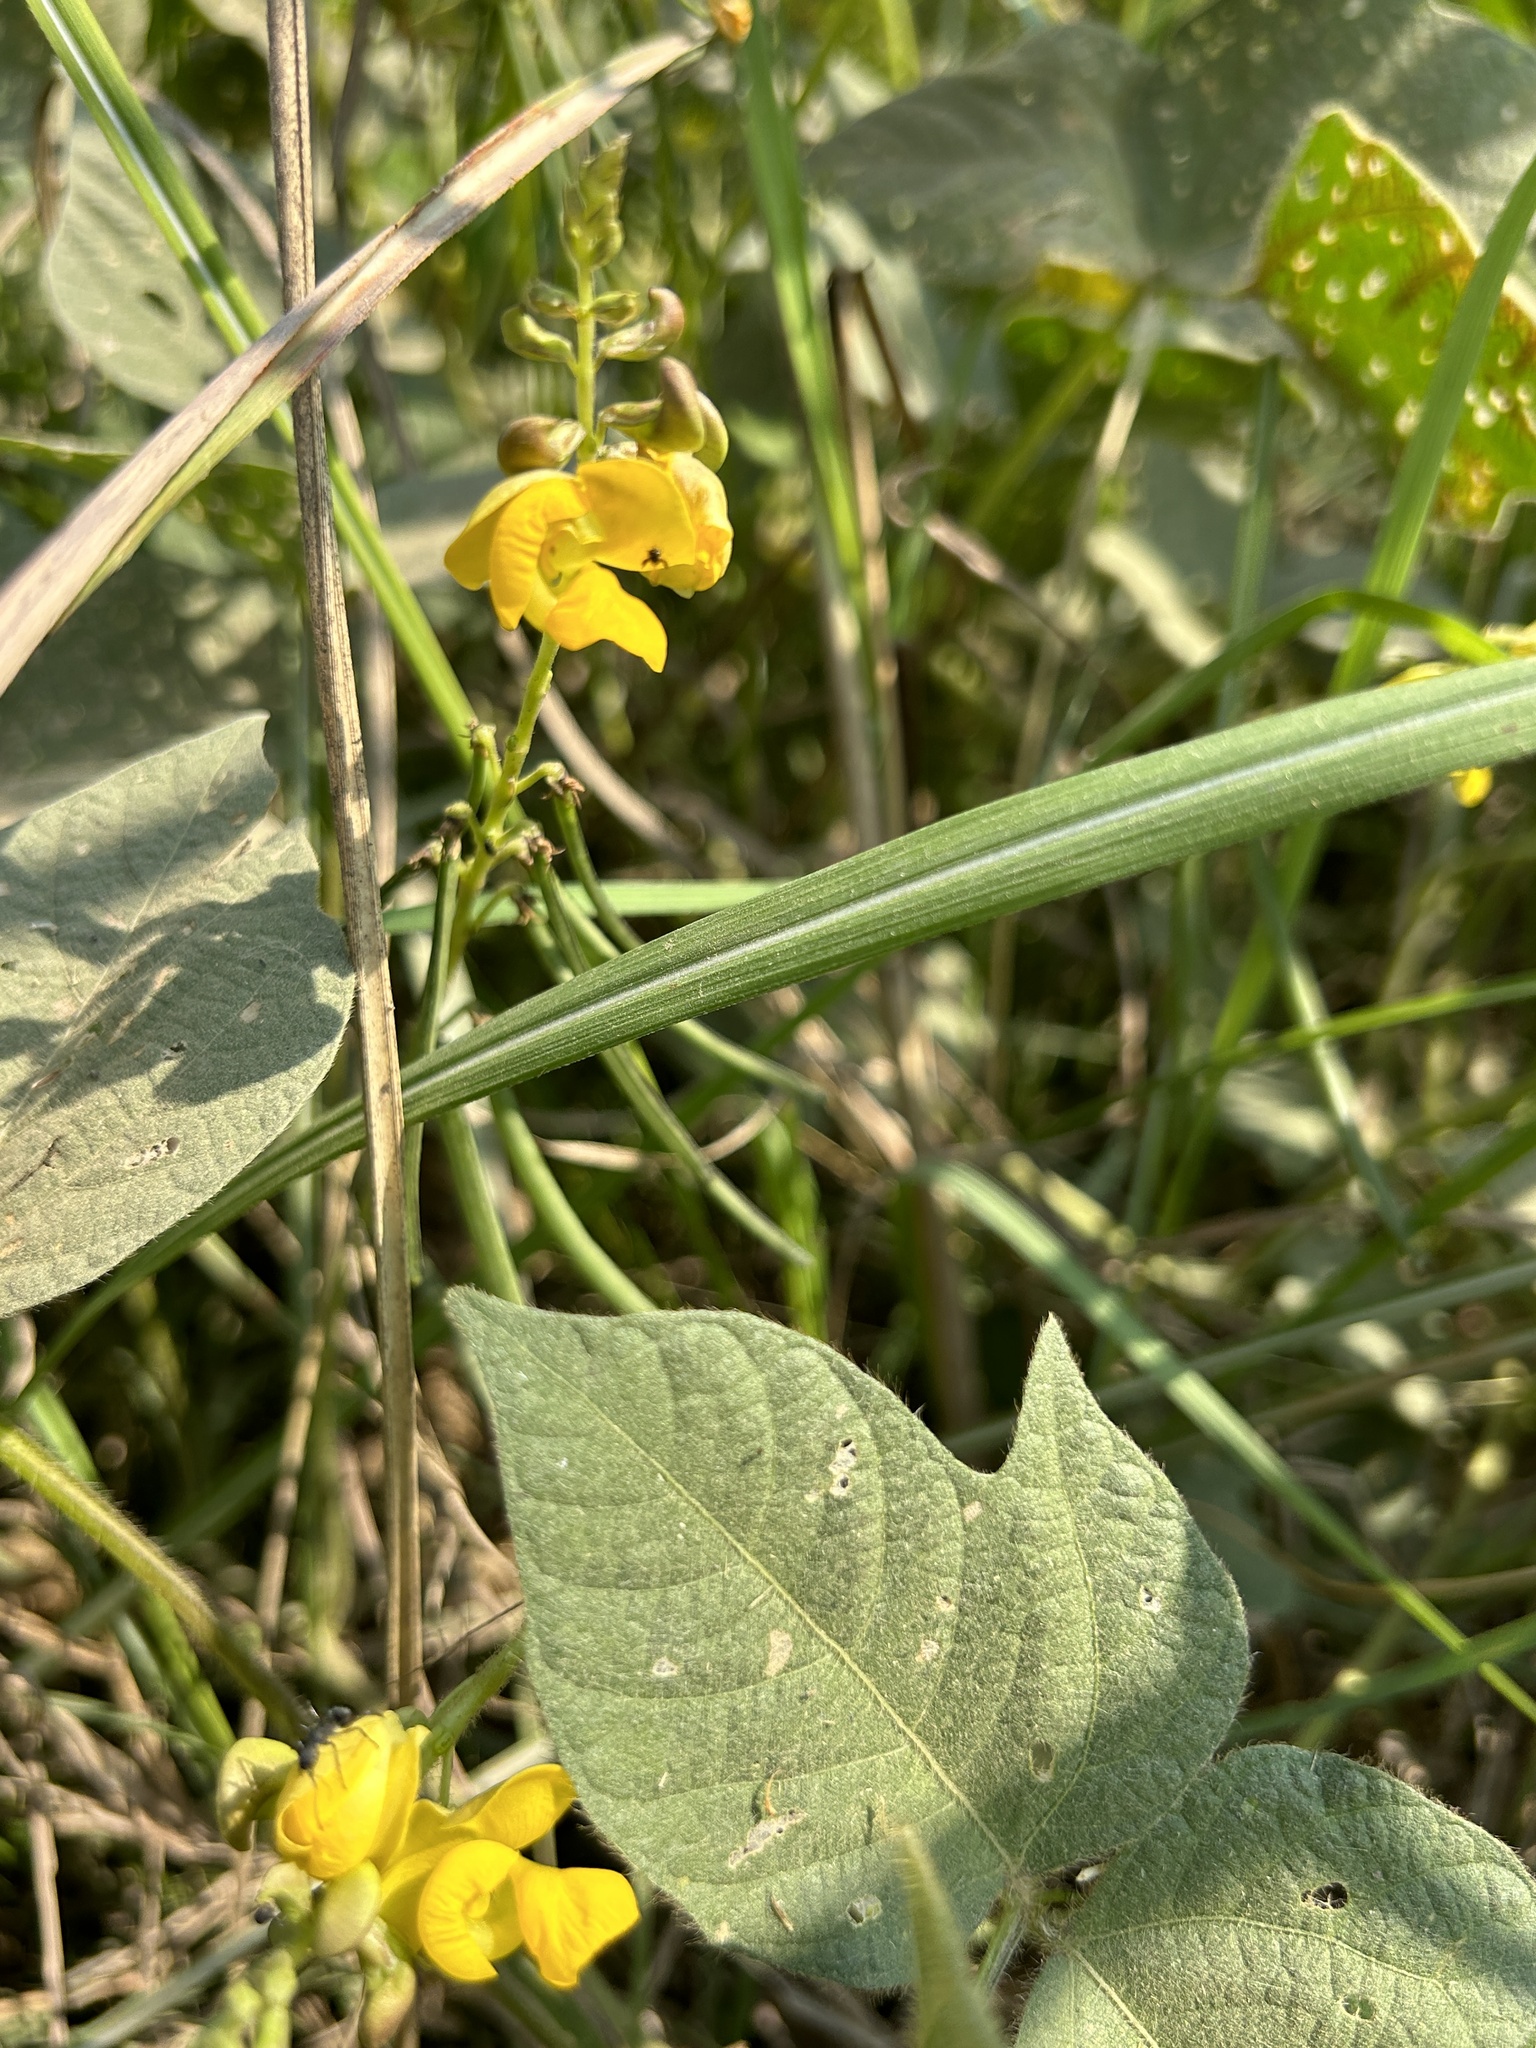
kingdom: Plantae
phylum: Tracheophyta
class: Magnoliopsida
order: Fabales
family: Fabaceae
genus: Vigna
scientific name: Vigna luteola
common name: Hairypod cowpea
